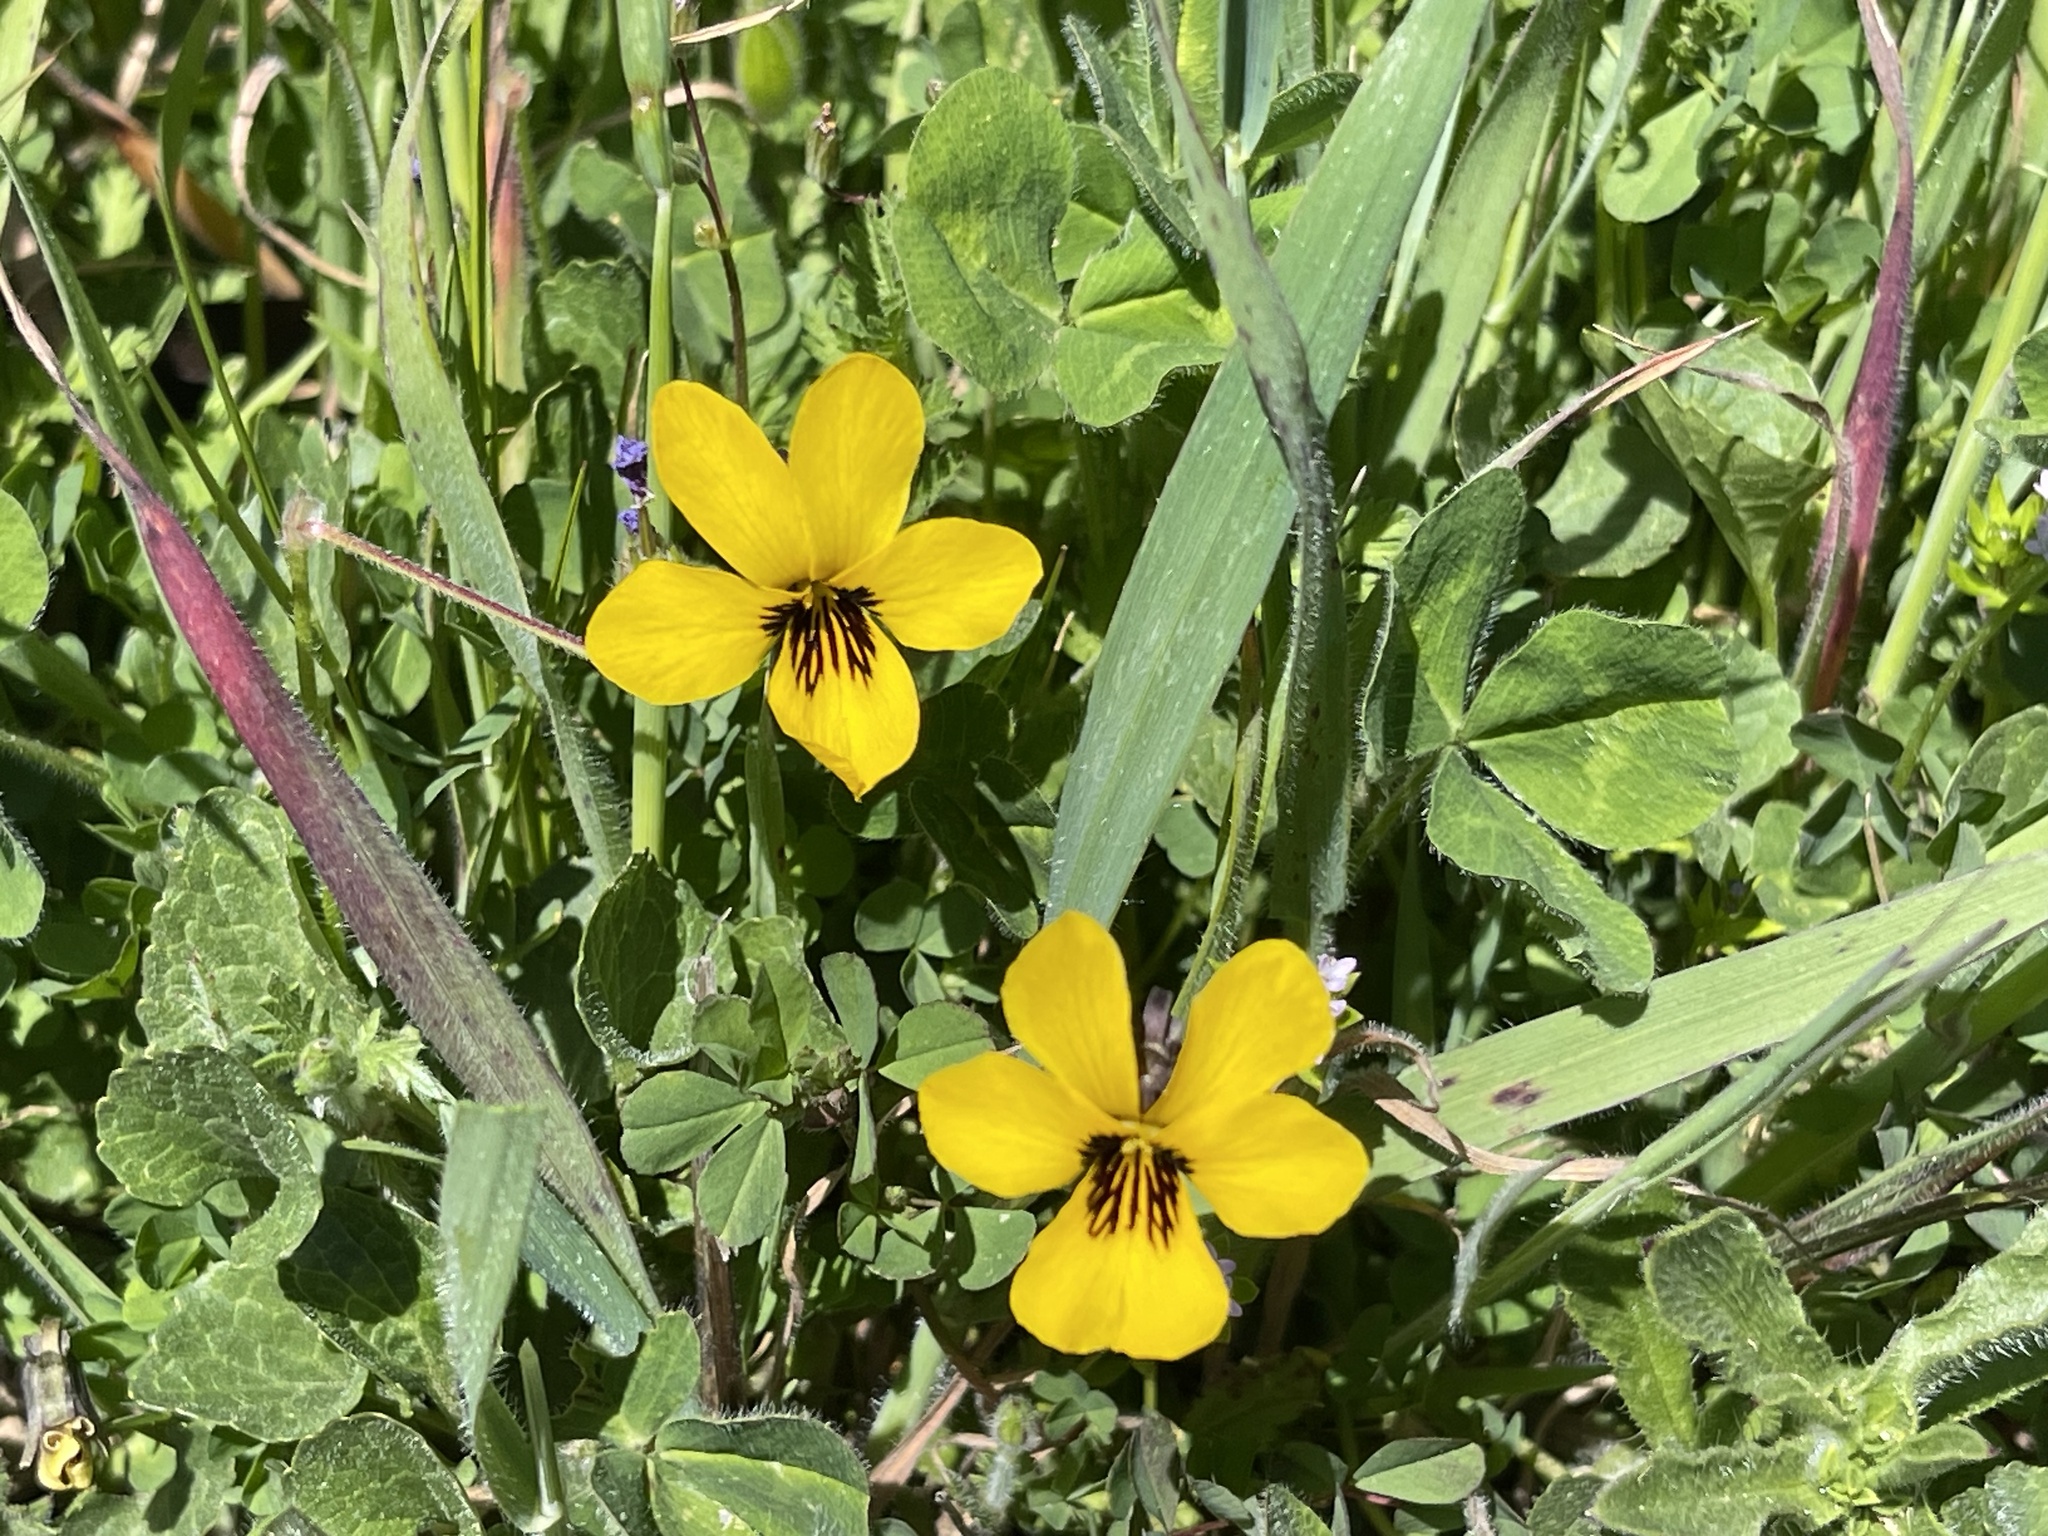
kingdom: Plantae
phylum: Tracheophyta
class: Magnoliopsida
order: Malpighiales
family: Violaceae
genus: Viola
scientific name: Viola pedunculata
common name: California golden violet
